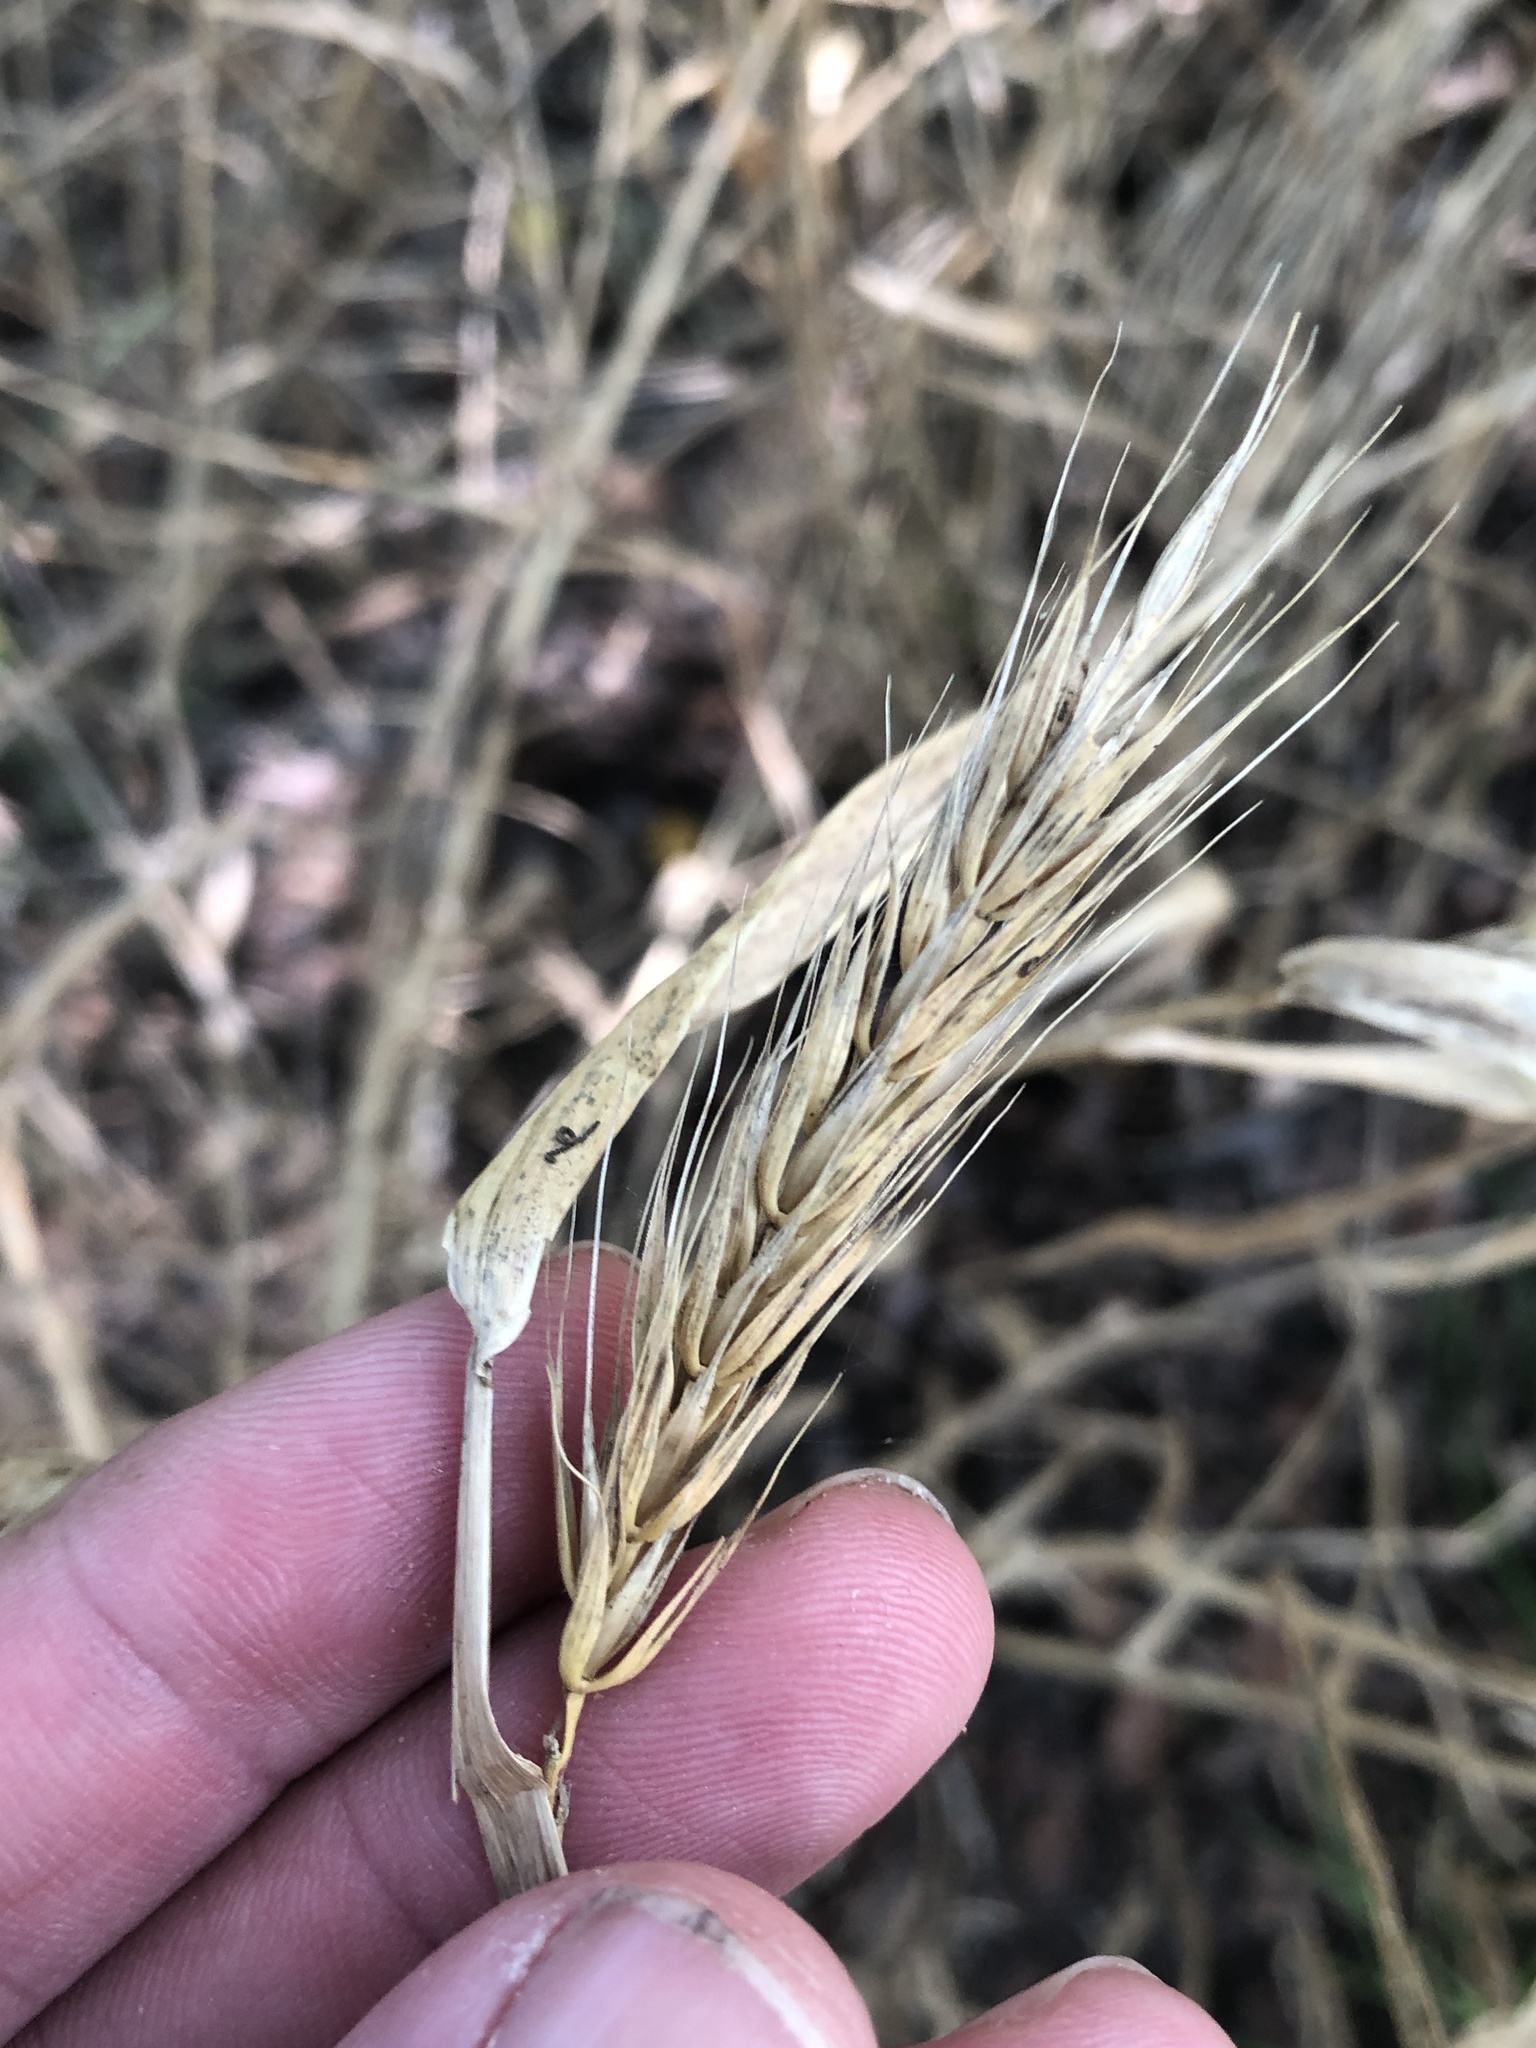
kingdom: Plantae
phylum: Tracheophyta
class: Liliopsida
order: Poales
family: Poaceae
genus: Elymus
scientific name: Elymus virginicus
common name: Common eastern wildrye
